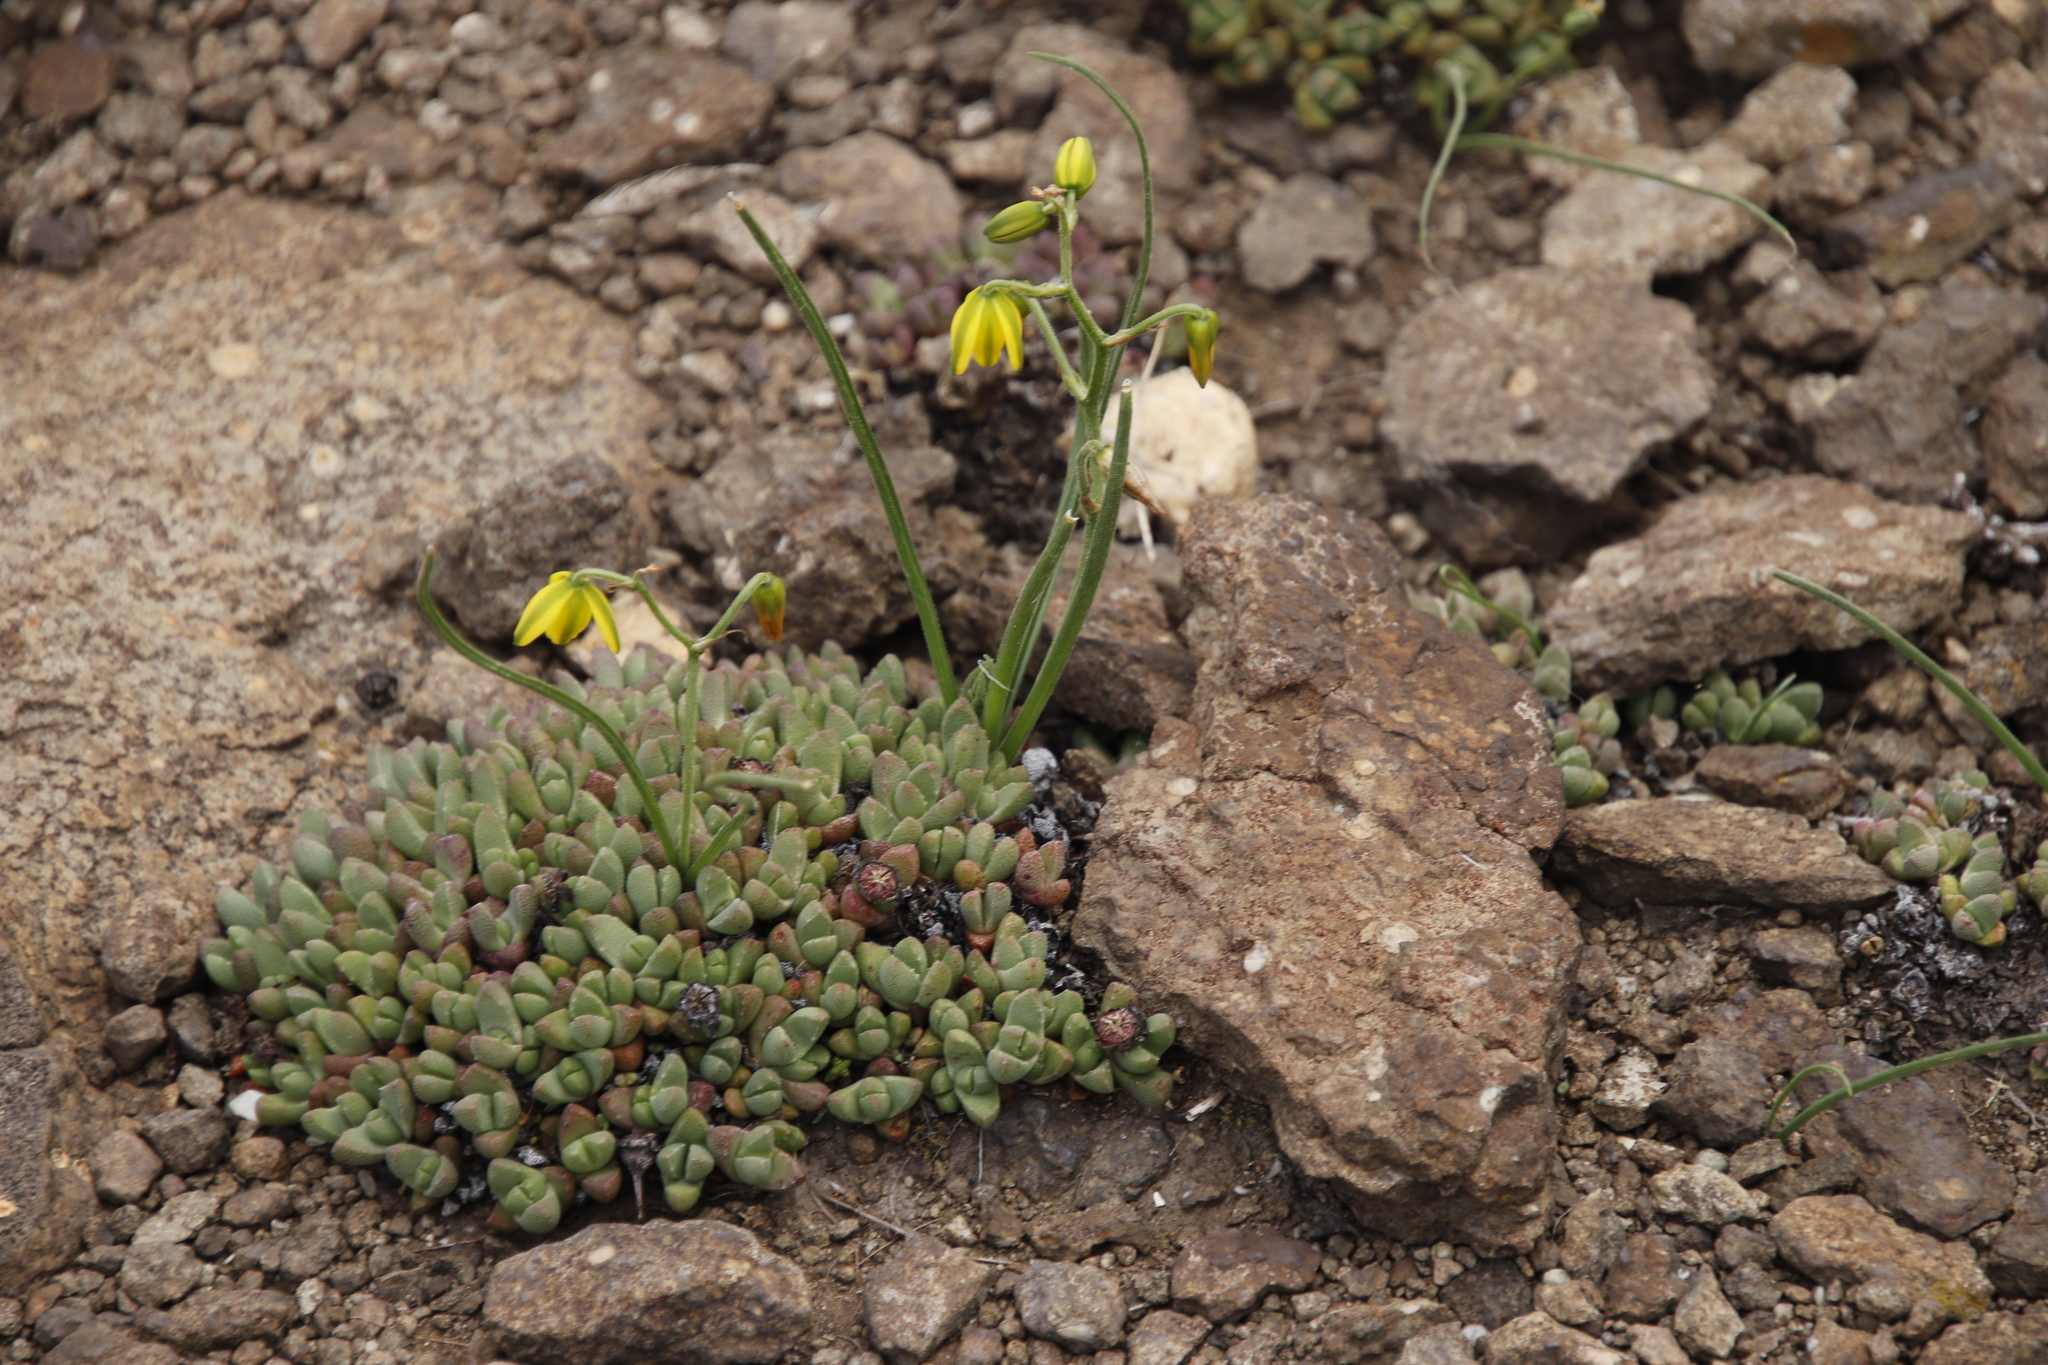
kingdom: Plantae
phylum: Tracheophyta
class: Liliopsida
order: Asparagales
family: Asparagaceae
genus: Albuca
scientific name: Albuca shawii
